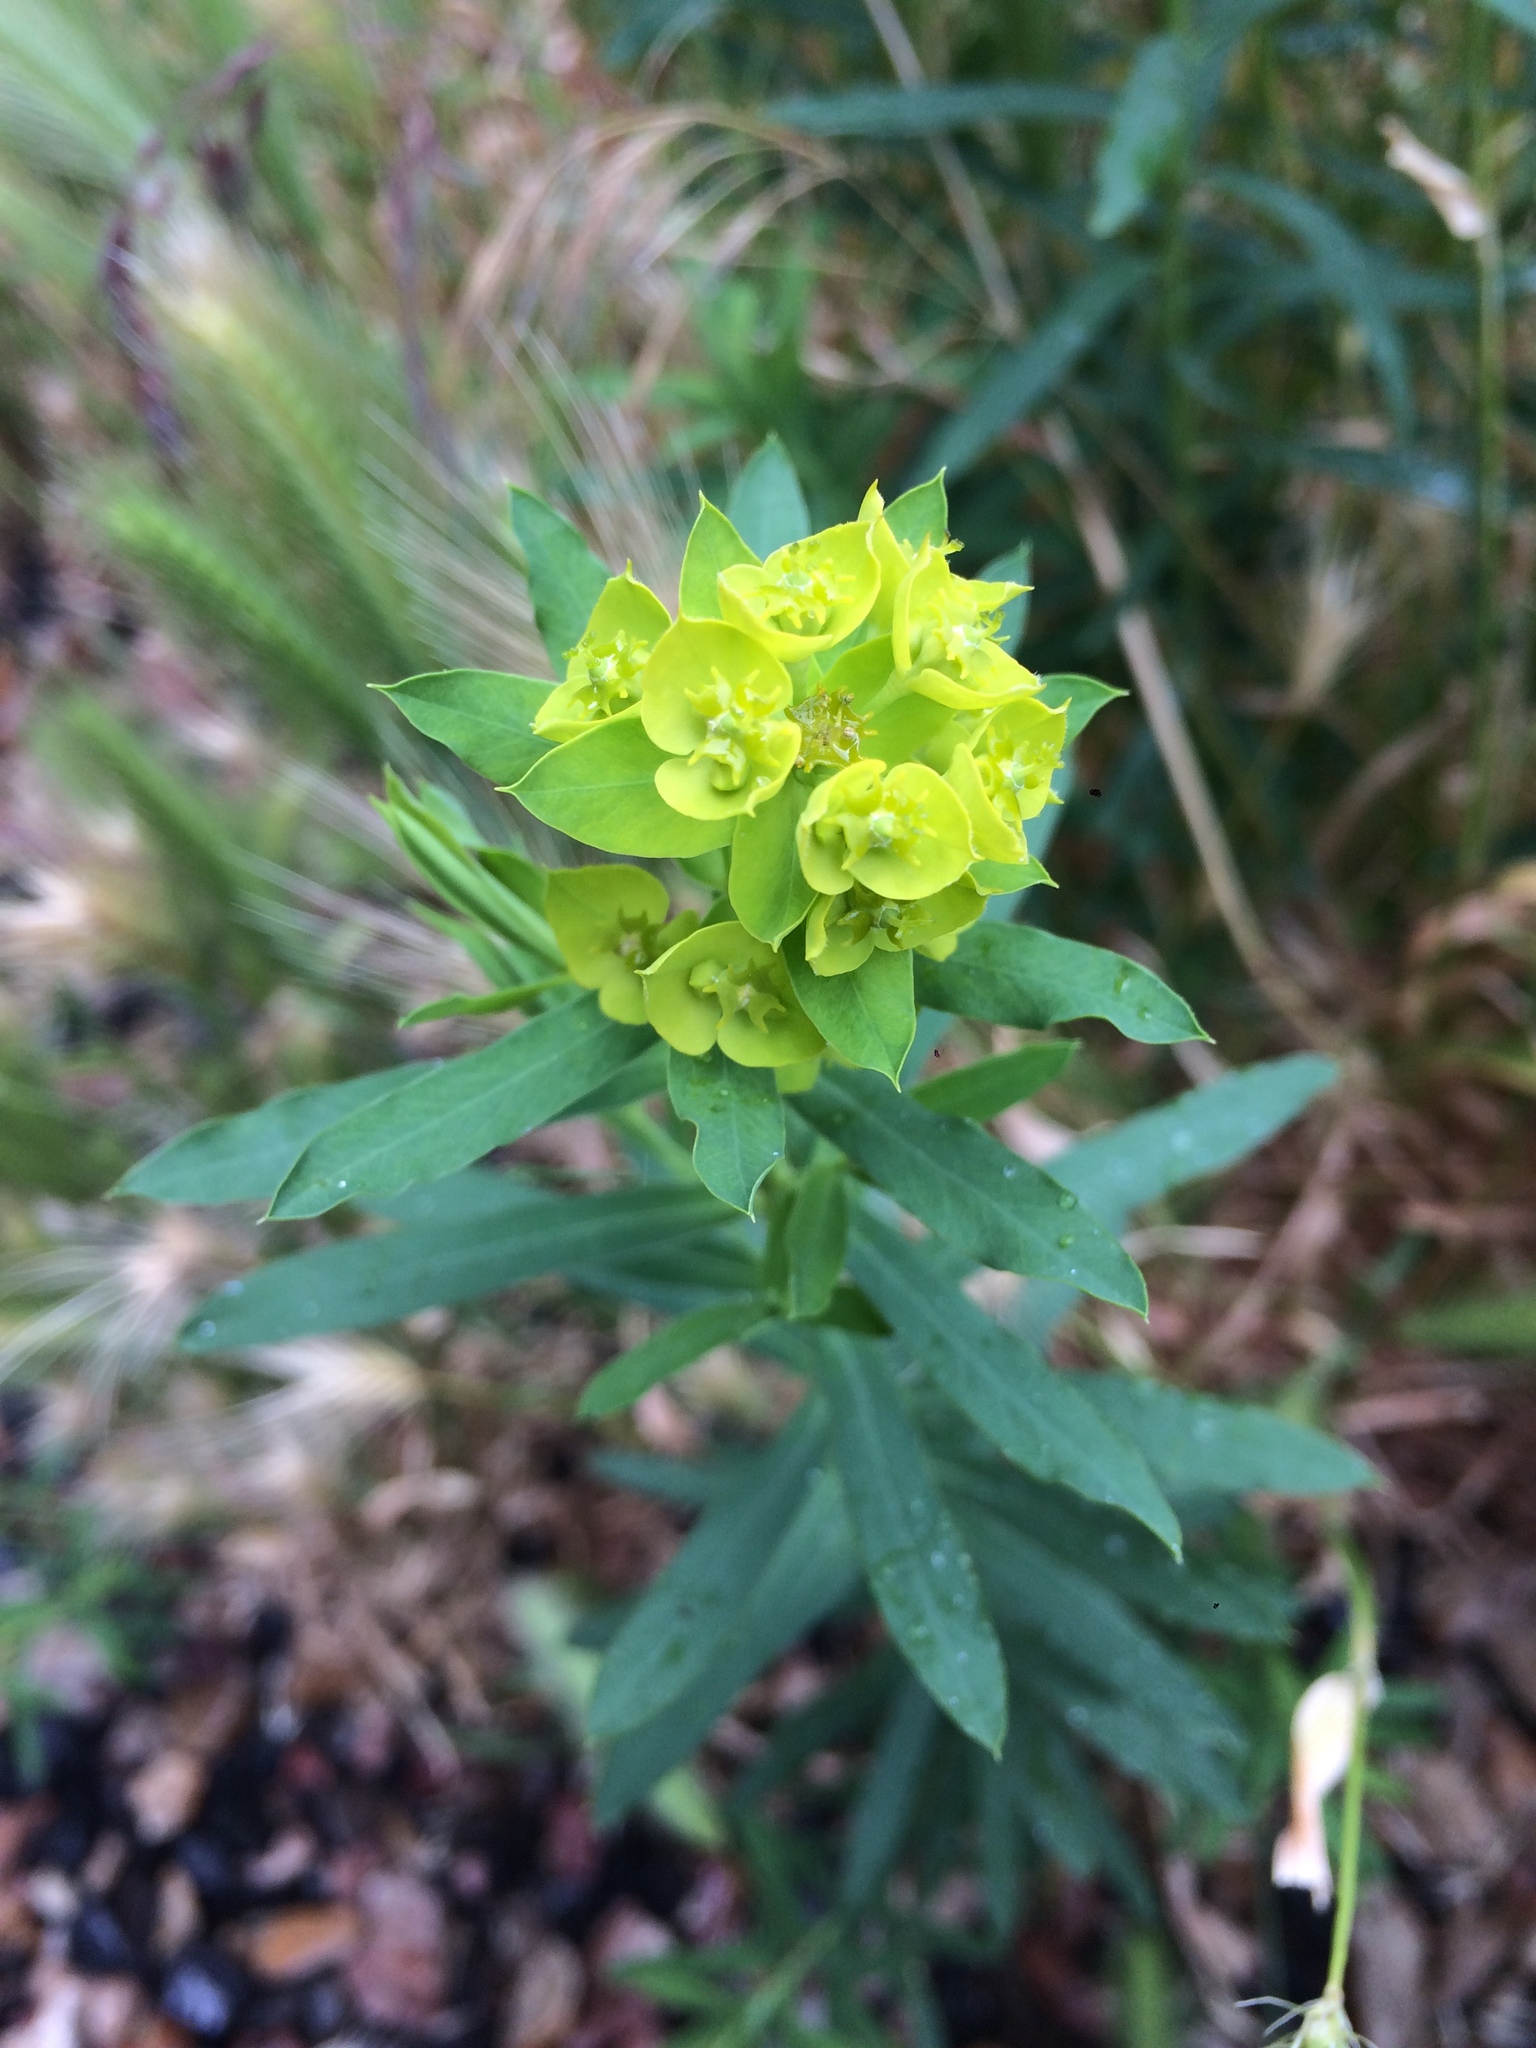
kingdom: Plantae
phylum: Tracheophyta
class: Magnoliopsida
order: Malpighiales
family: Euphorbiaceae
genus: Euphorbia
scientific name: Euphorbia virgata
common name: Leafy spurge
